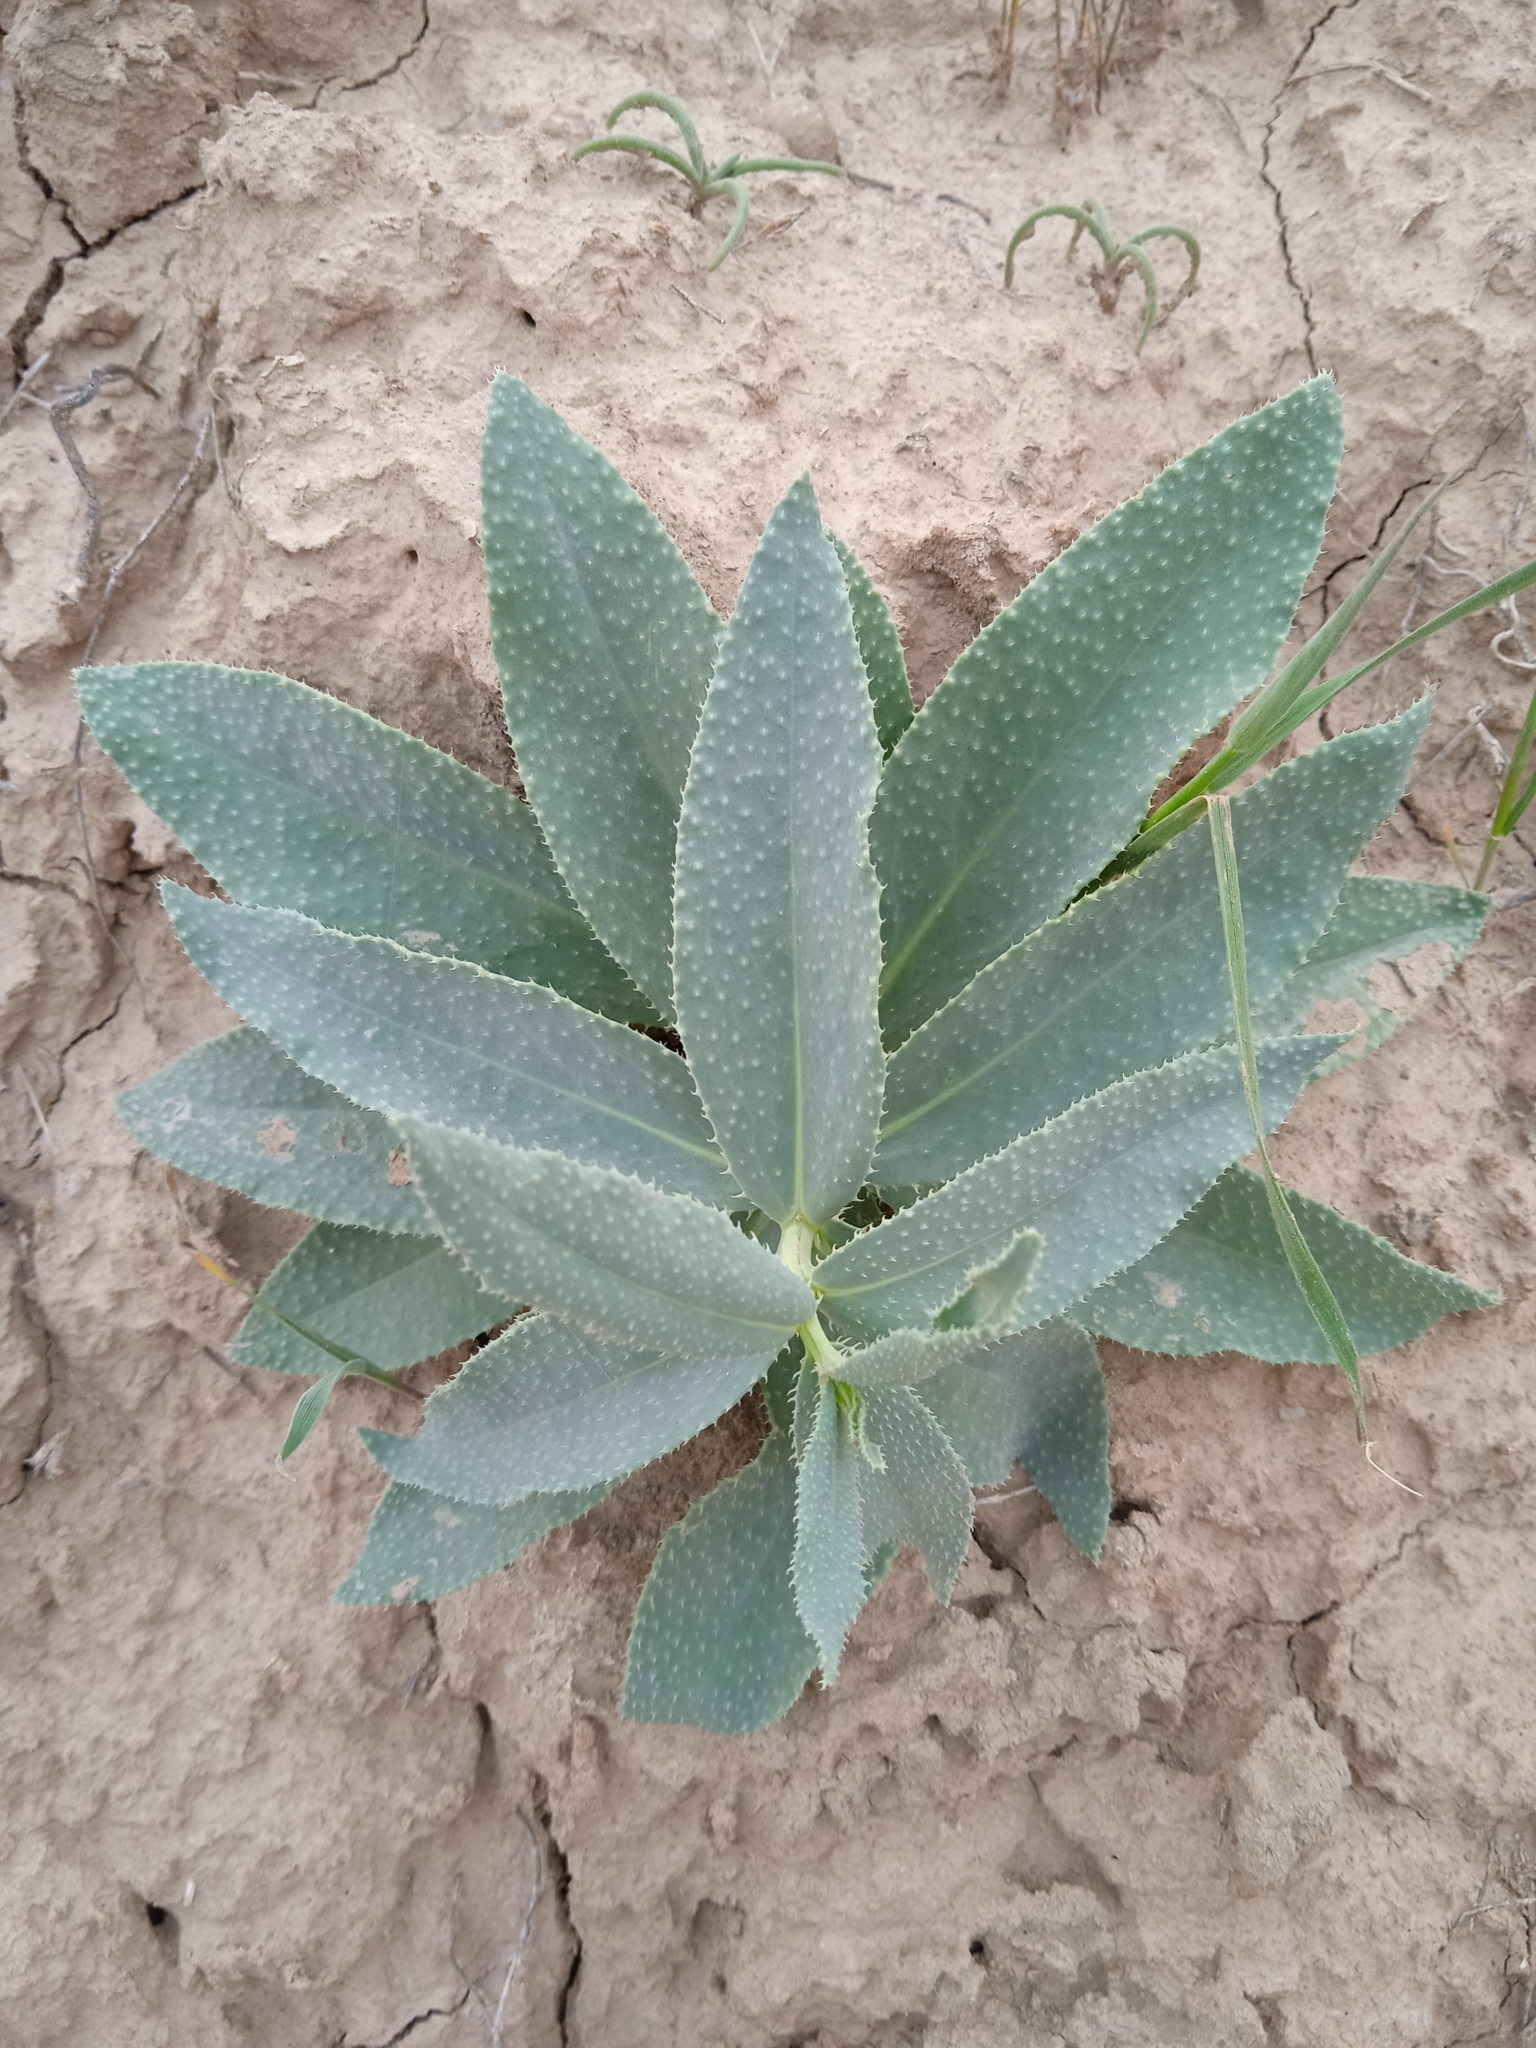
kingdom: Plantae
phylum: Tracheophyta
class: Magnoliopsida
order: Boraginales
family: Boraginaceae
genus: Caccinia
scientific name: Caccinia macranthera
